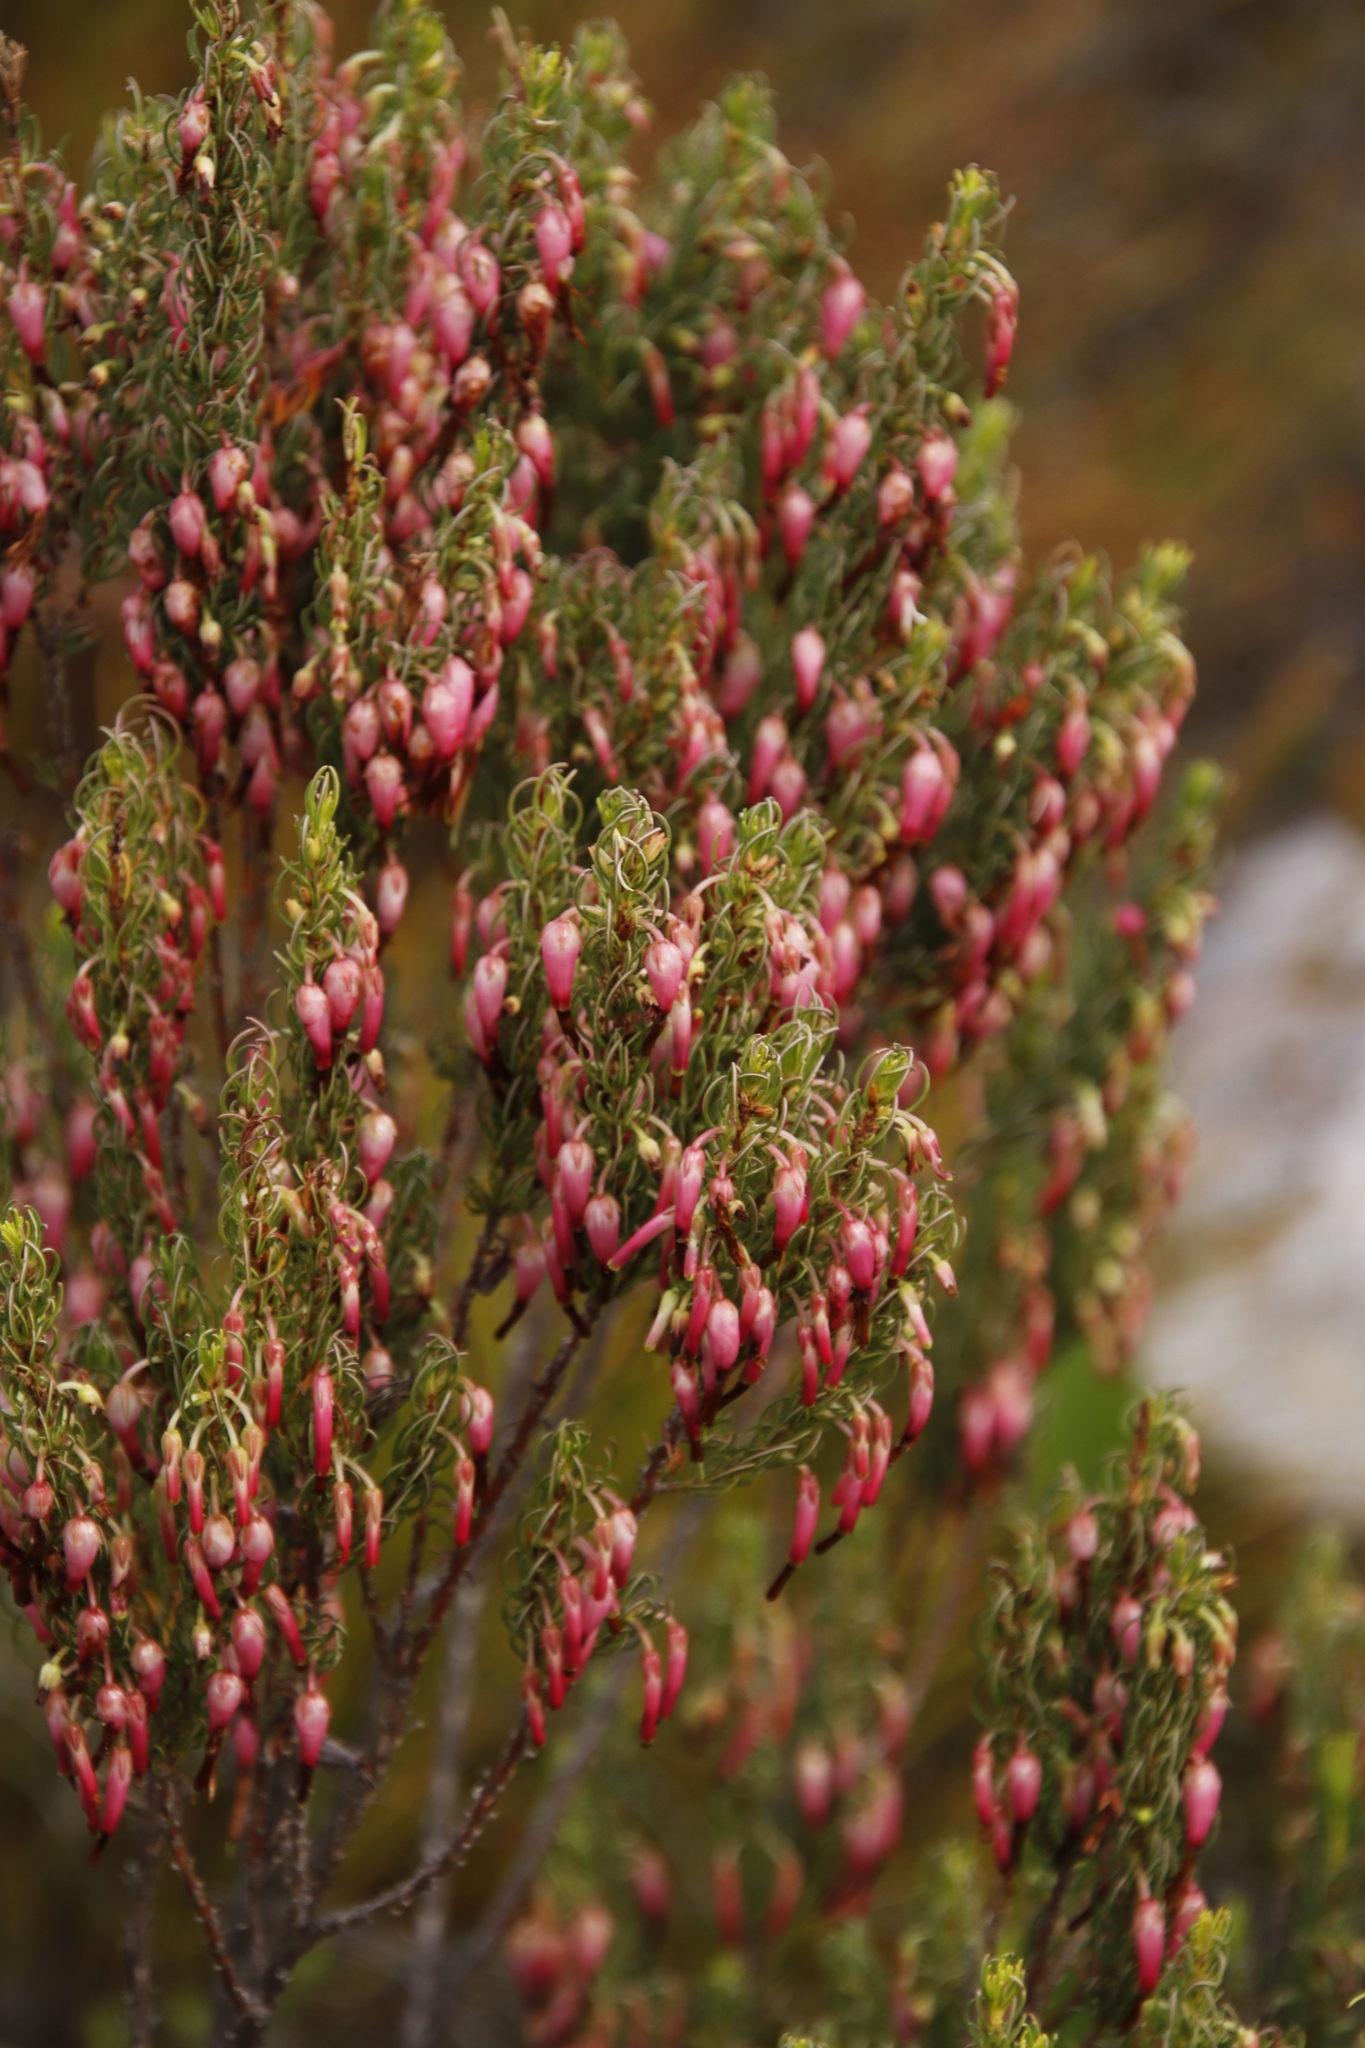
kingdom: Plantae
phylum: Tracheophyta
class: Magnoliopsida
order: Ericales
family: Ericaceae
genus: Erica
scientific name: Erica plukenetii
